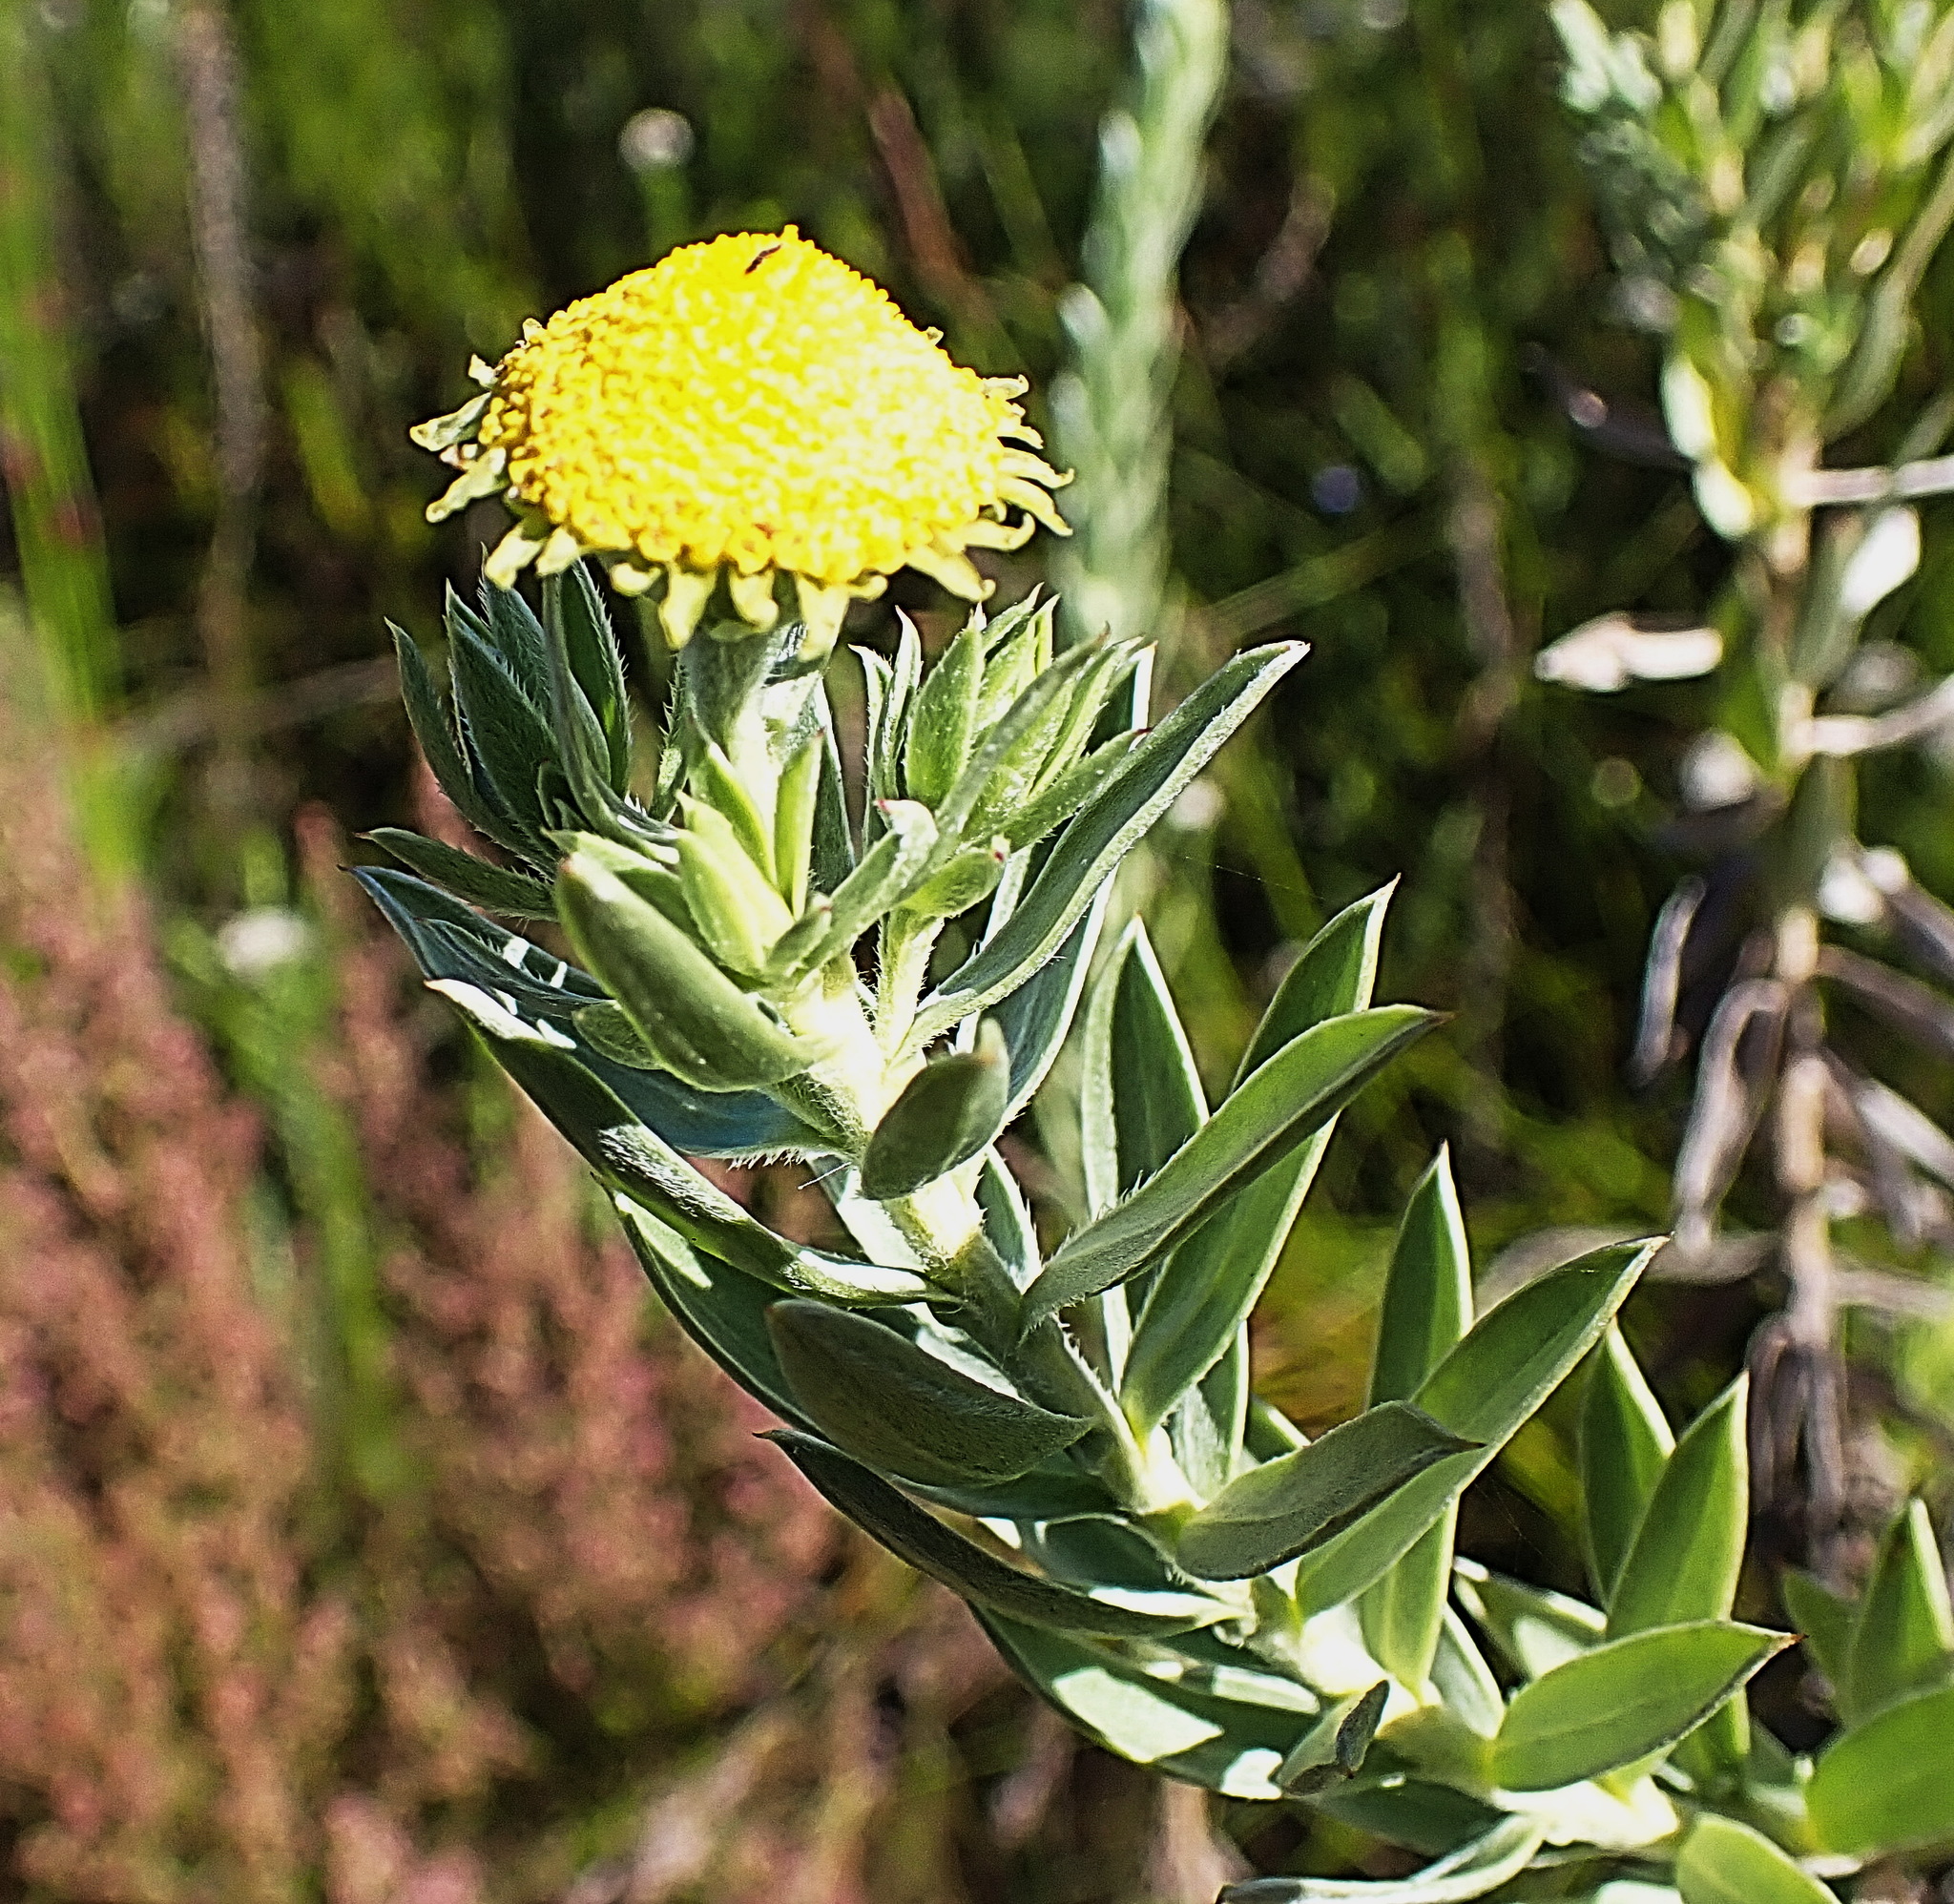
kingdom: Plantae
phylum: Tracheophyta
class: Magnoliopsida
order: Asterales
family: Asteraceae
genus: Schistostephium
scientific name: Schistostephium umbellatum
